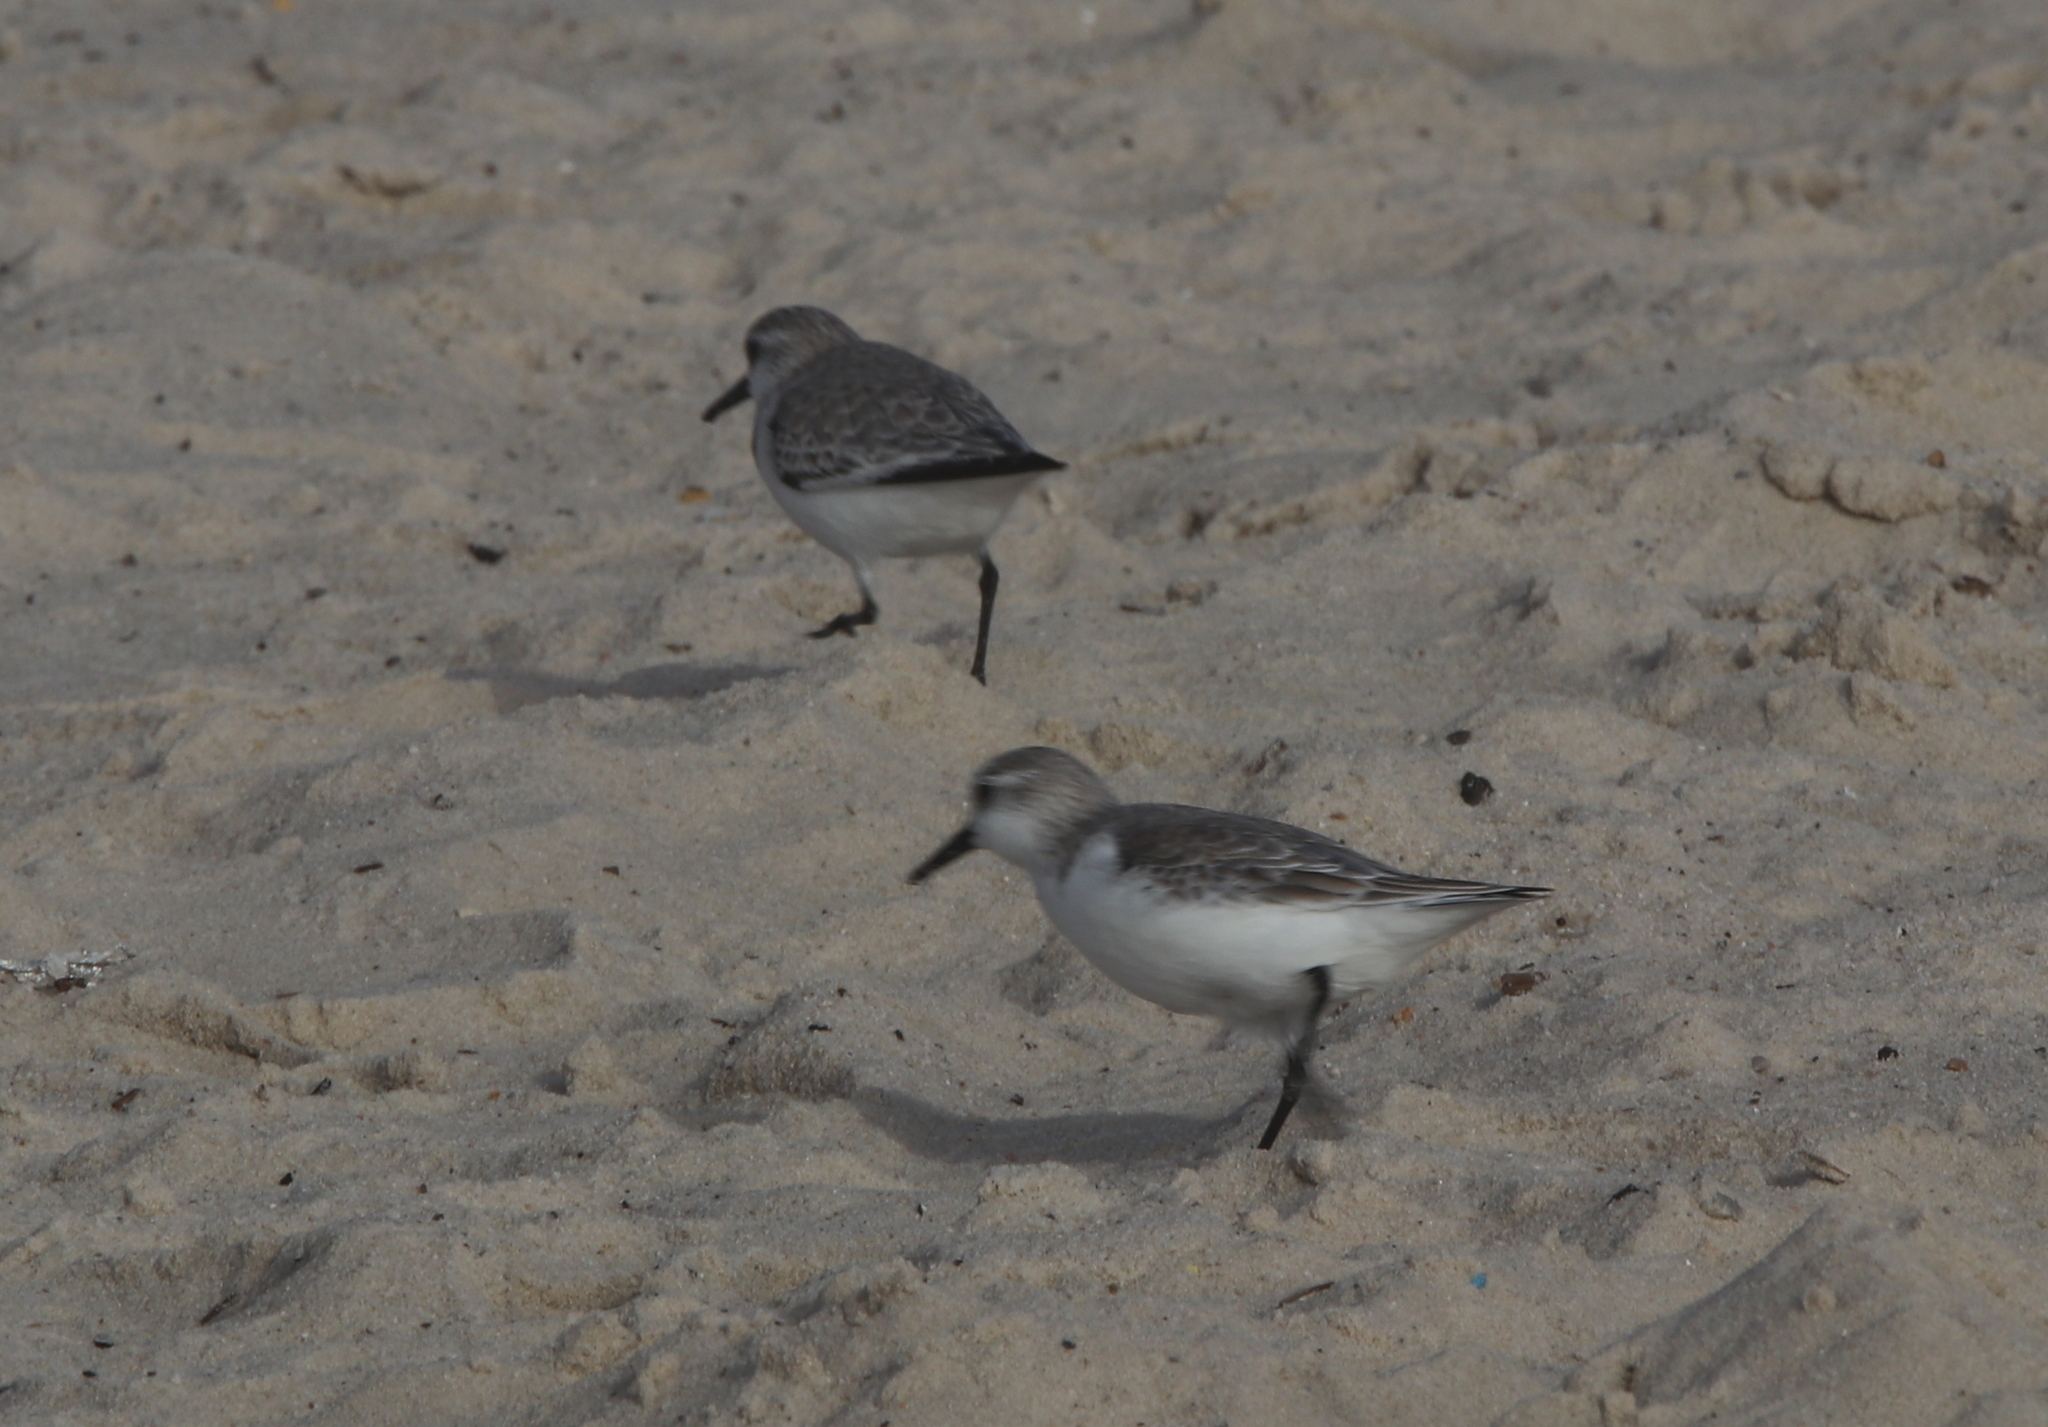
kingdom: Animalia
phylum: Chordata
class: Aves
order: Charadriiformes
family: Scolopacidae
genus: Calidris
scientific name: Calidris alba
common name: Sanderling
